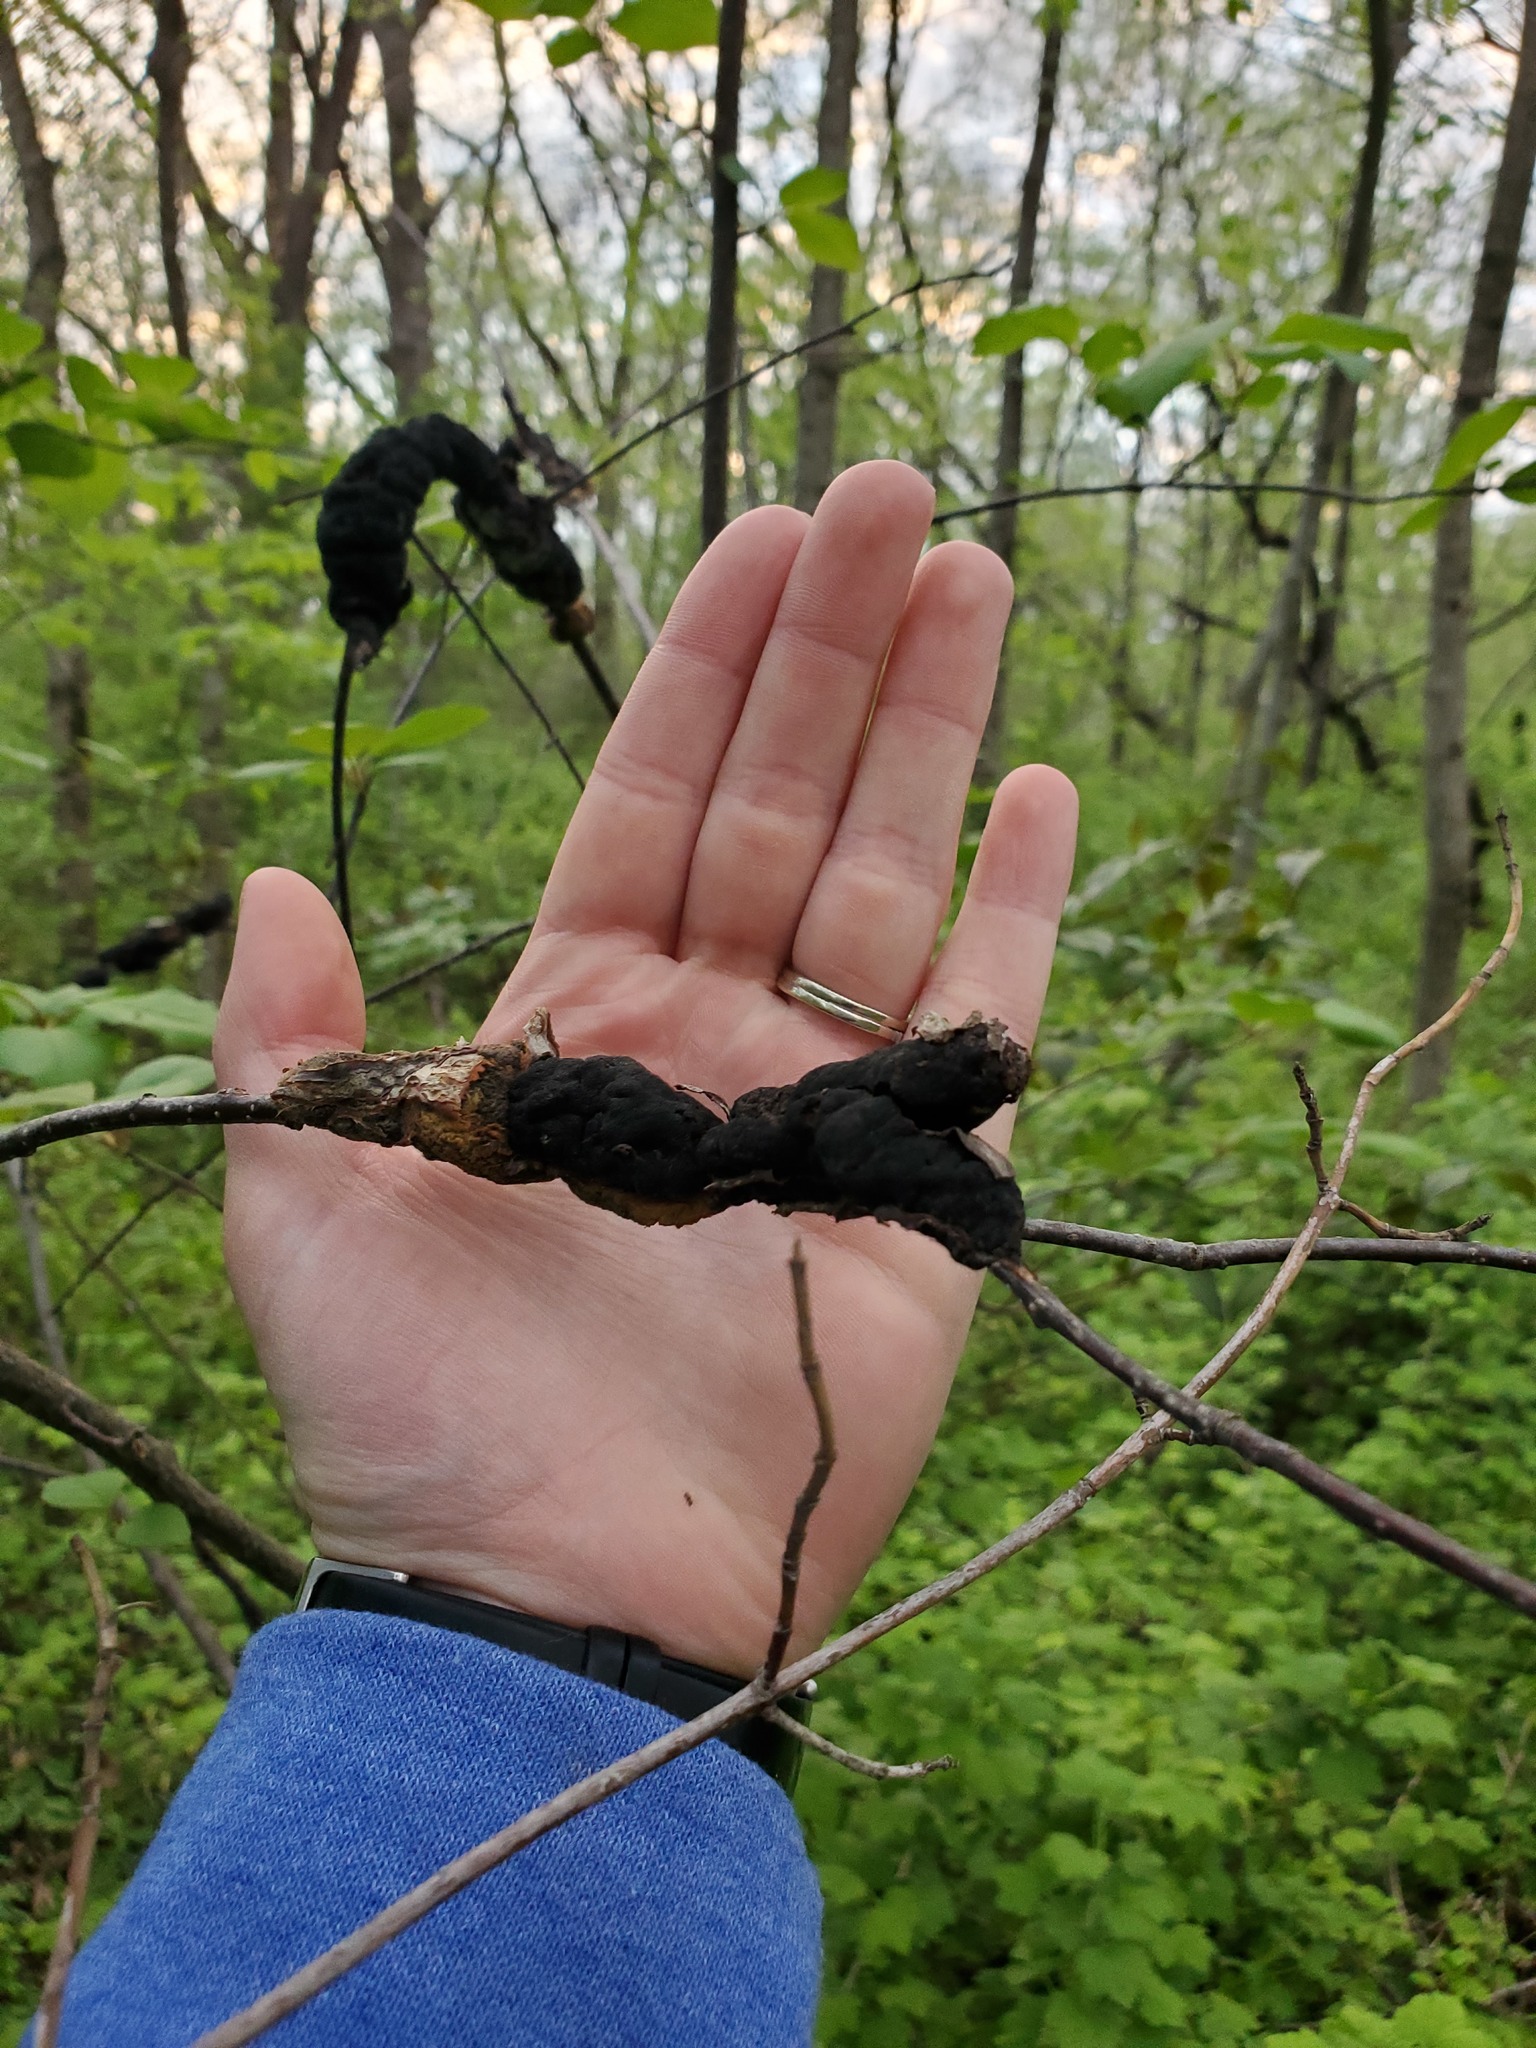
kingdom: Fungi
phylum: Ascomycota
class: Dothideomycetes
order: Venturiales
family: Venturiaceae
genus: Apiosporina
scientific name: Apiosporina morbosa
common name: Black knot
